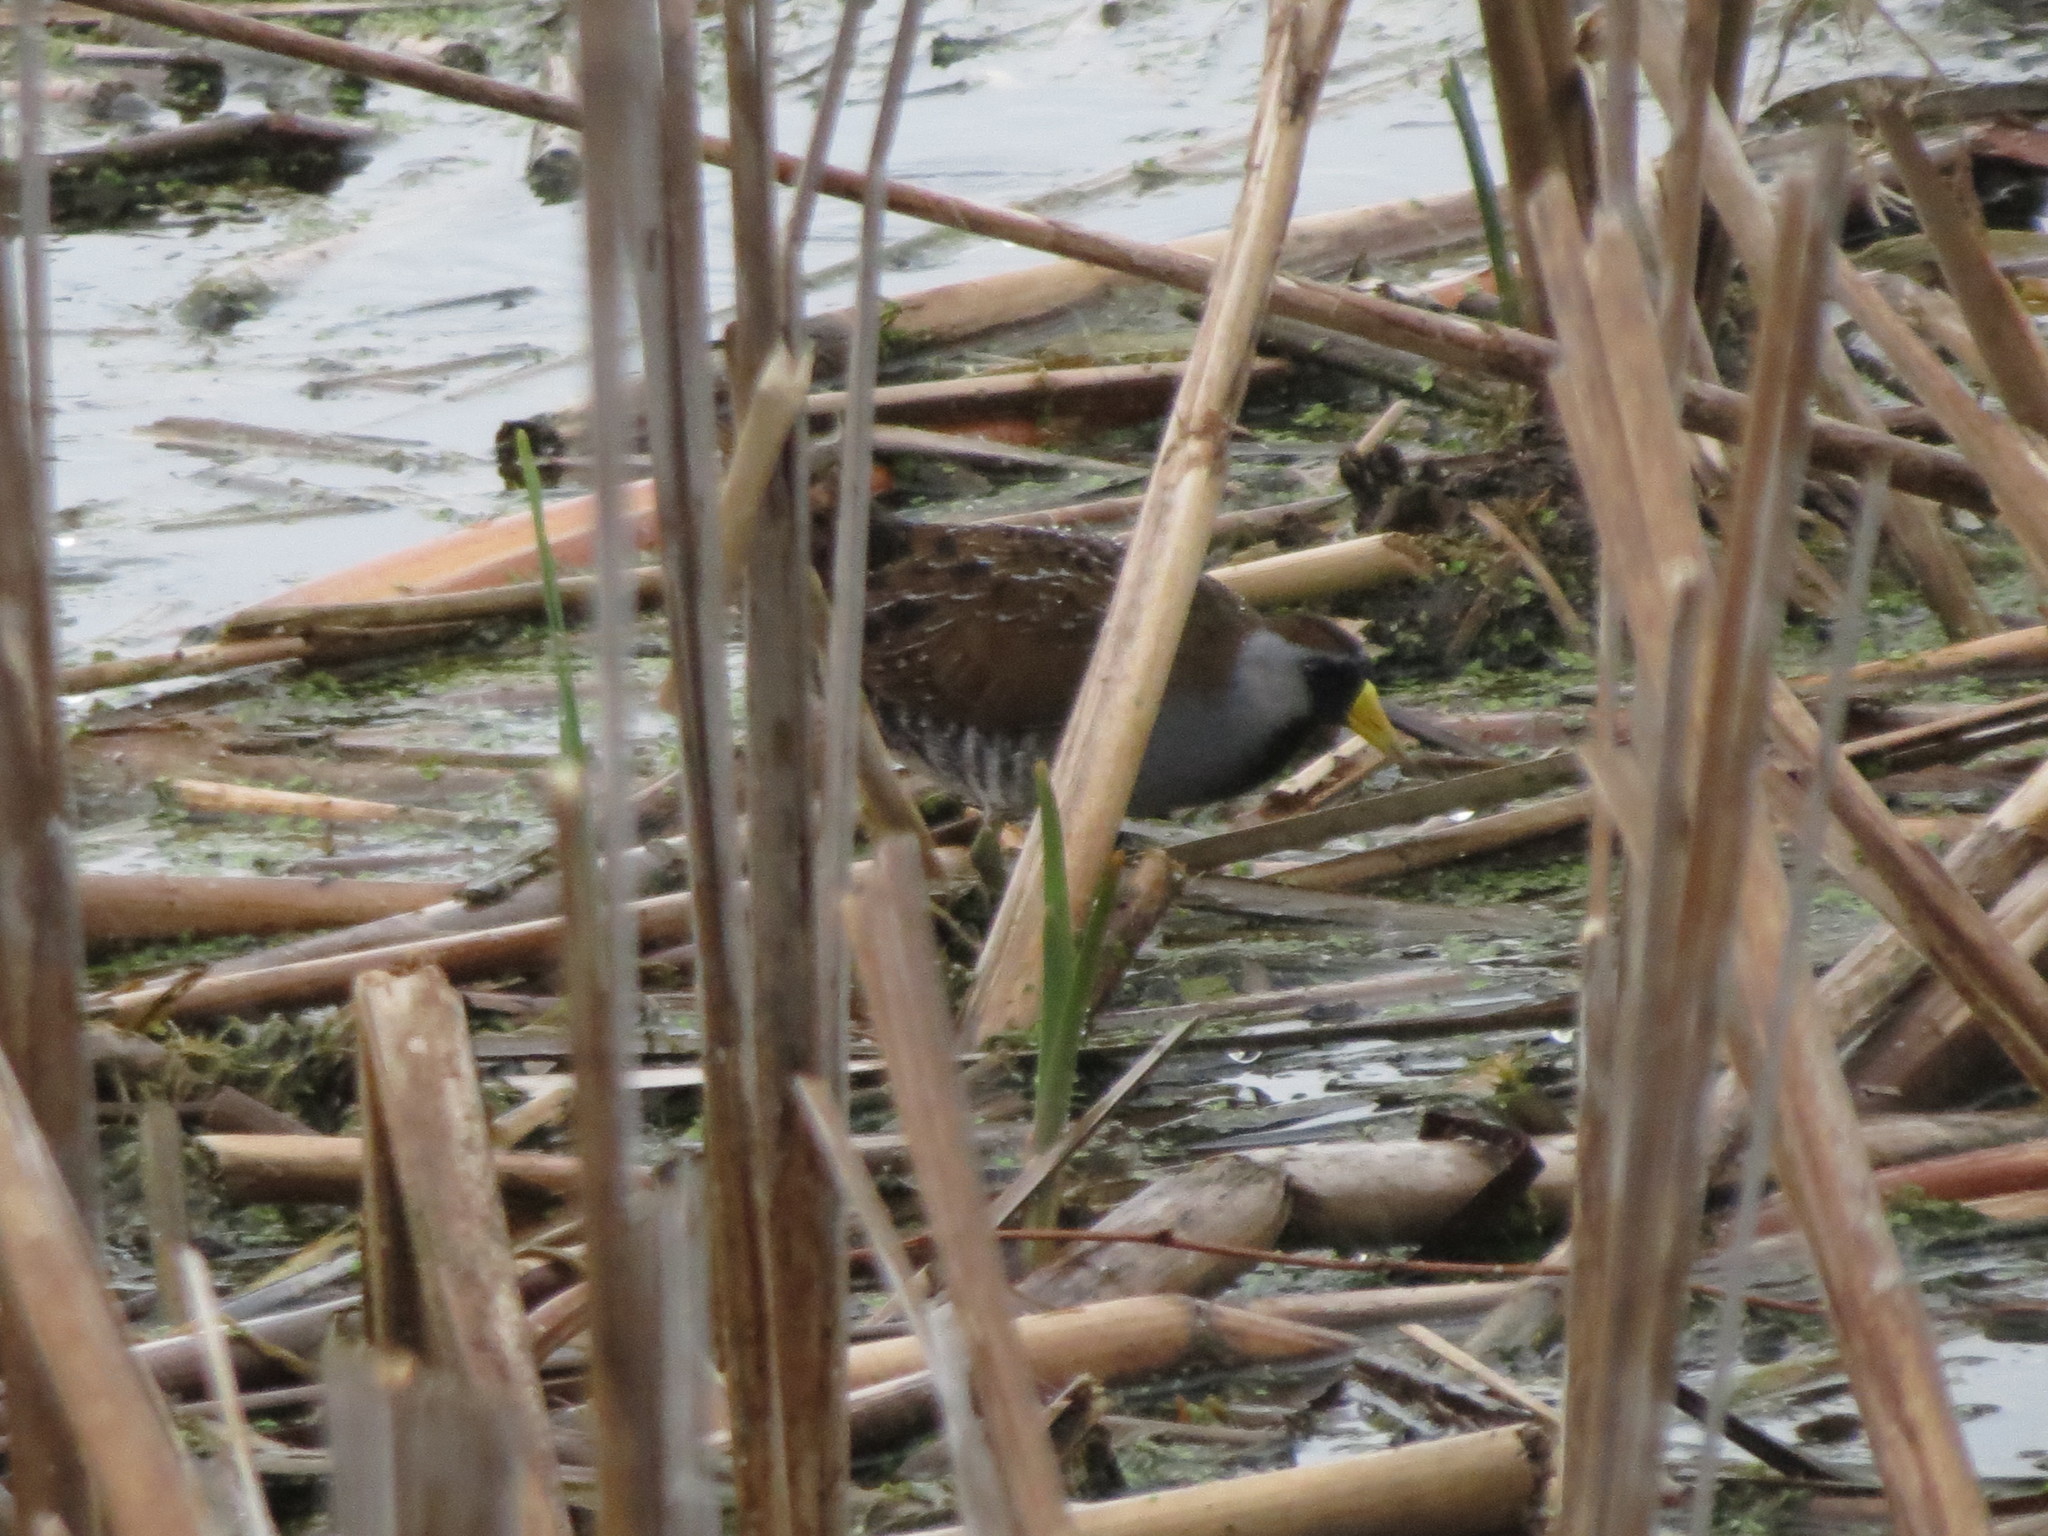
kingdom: Animalia
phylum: Chordata
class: Aves
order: Gruiformes
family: Rallidae
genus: Porzana
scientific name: Porzana carolina
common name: Sora
